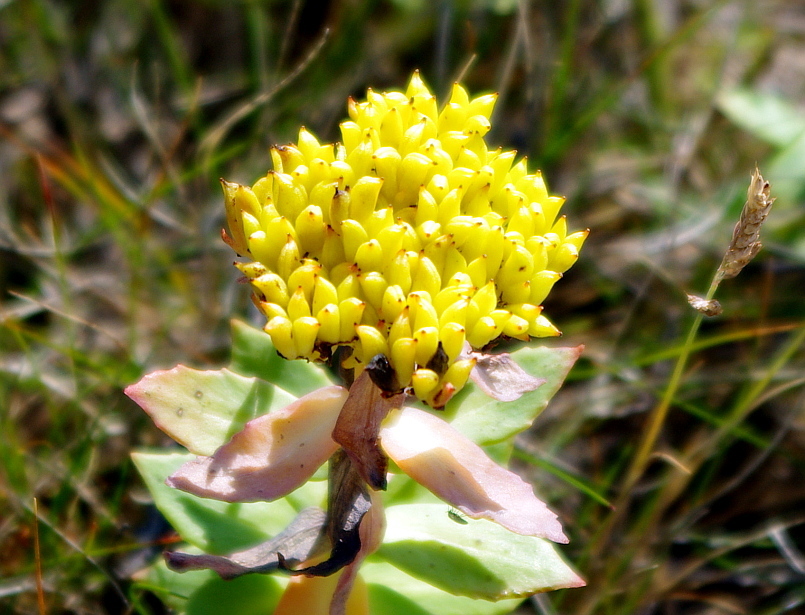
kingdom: Plantae
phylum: Tracheophyta
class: Magnoliopsida
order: Saxifragales
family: Crassulaceae
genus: Rhodiola
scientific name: Rhodiola rosea
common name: Roseroot
